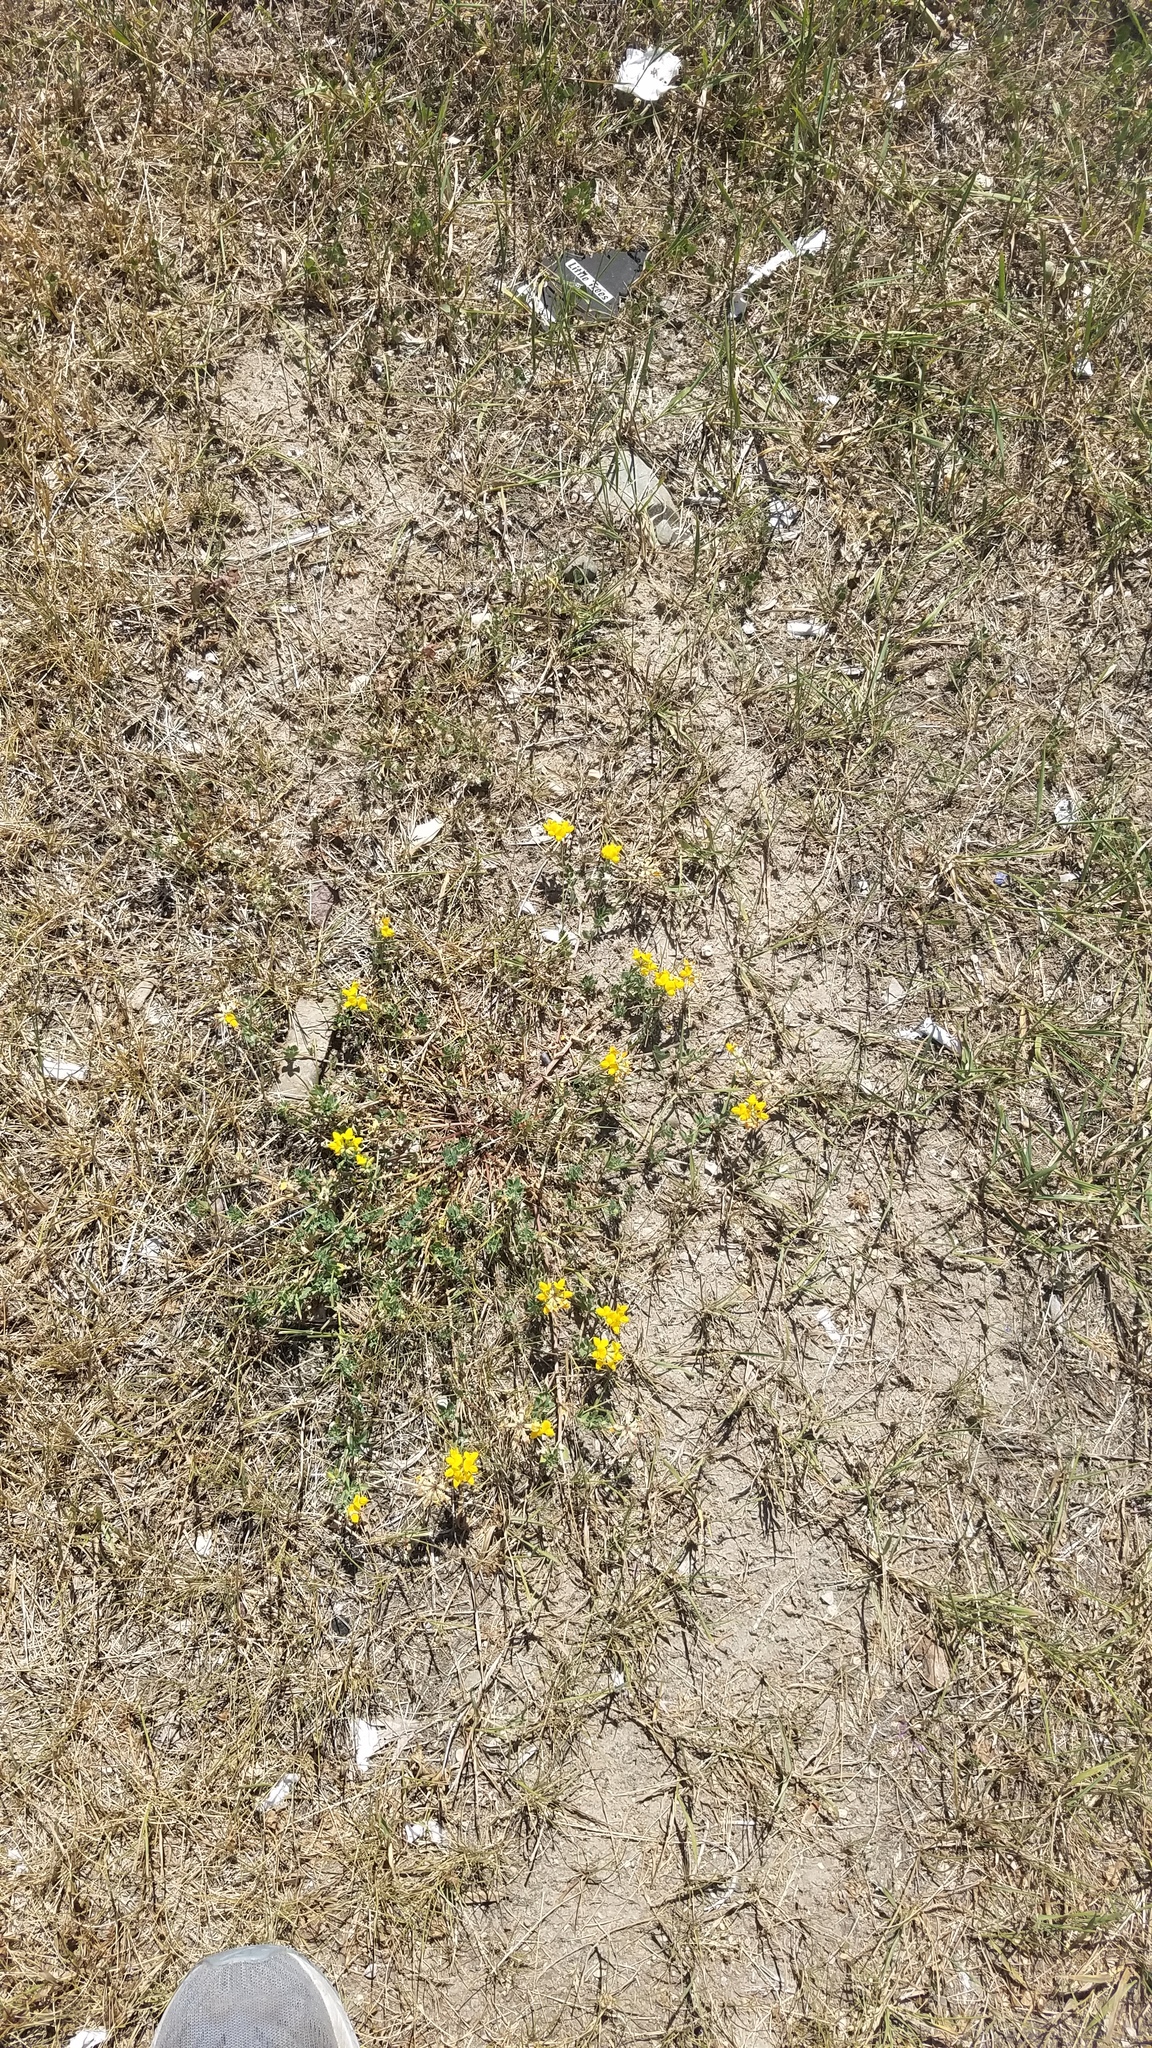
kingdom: Plantae
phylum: Tracheophyta
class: Magnoliopsida
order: Fabales
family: Fabaceae
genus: Lotus
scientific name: Lotus corniculatus
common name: Common bird's-foot-trefoil
